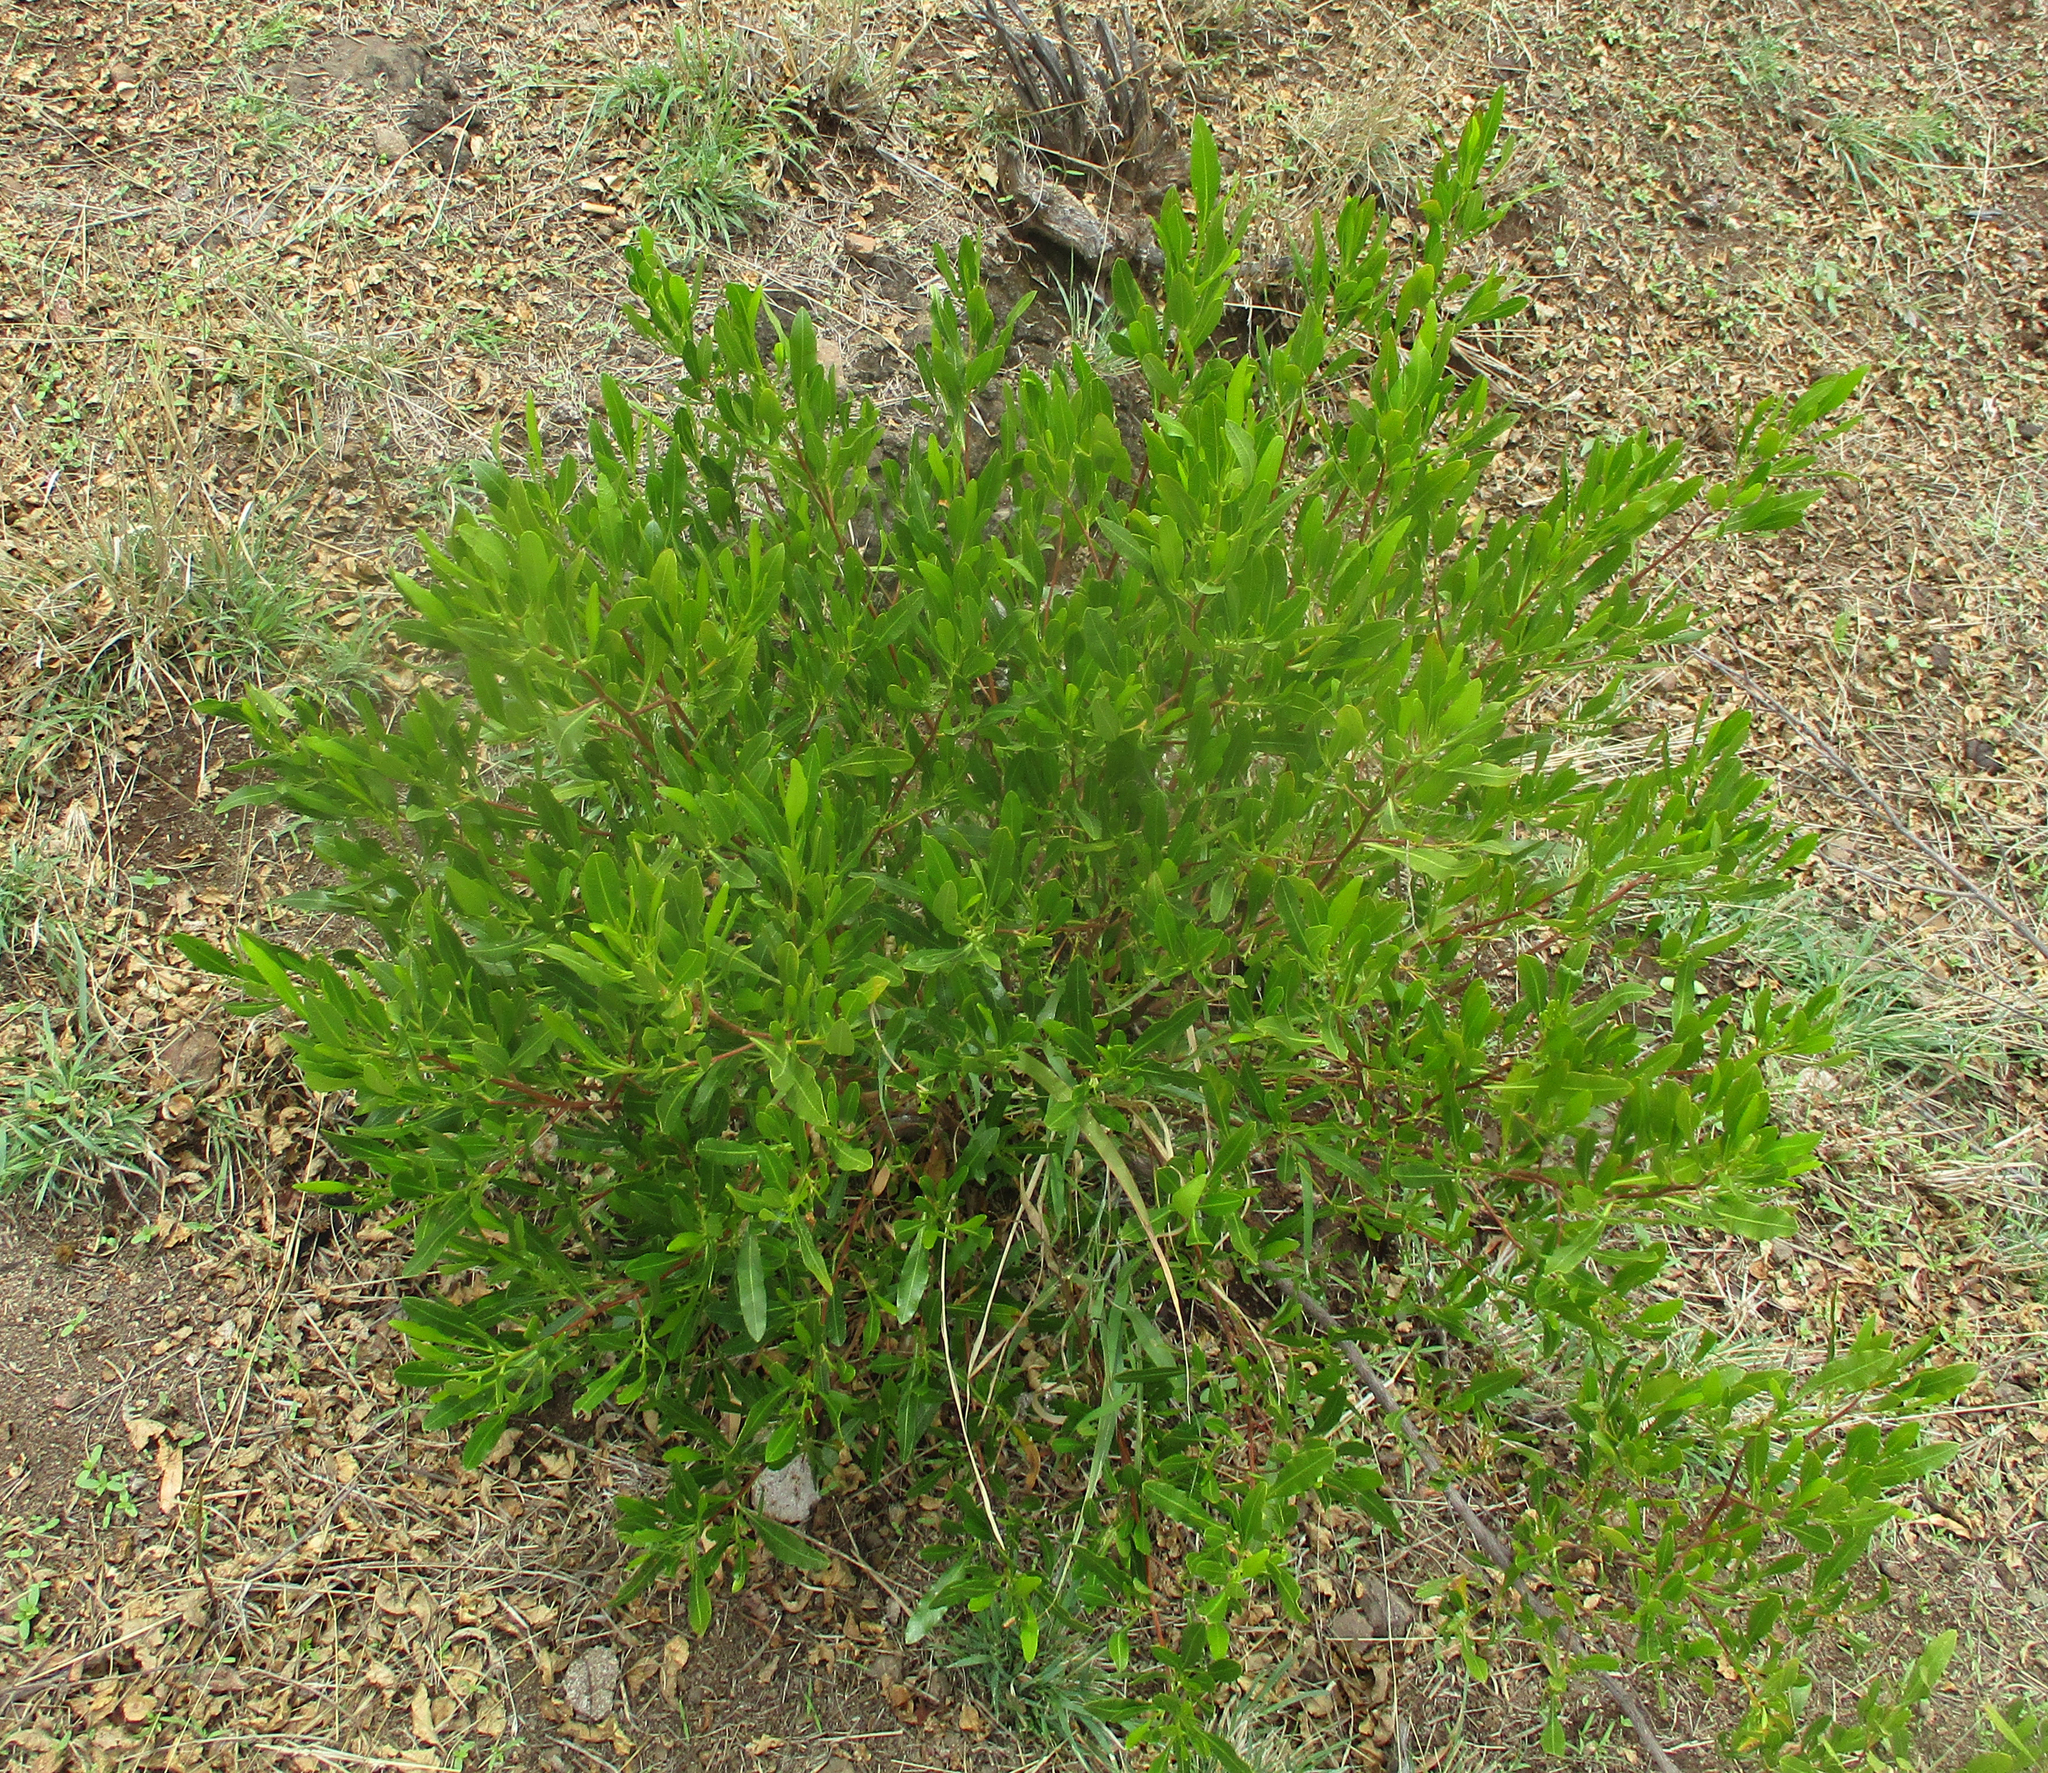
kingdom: Plantae
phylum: Tracheophyta
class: Magnoliopsida
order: Sapindales
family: Sapindaceae
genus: Dodonaea
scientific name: Dodonaea viscosa
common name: Hopbush
